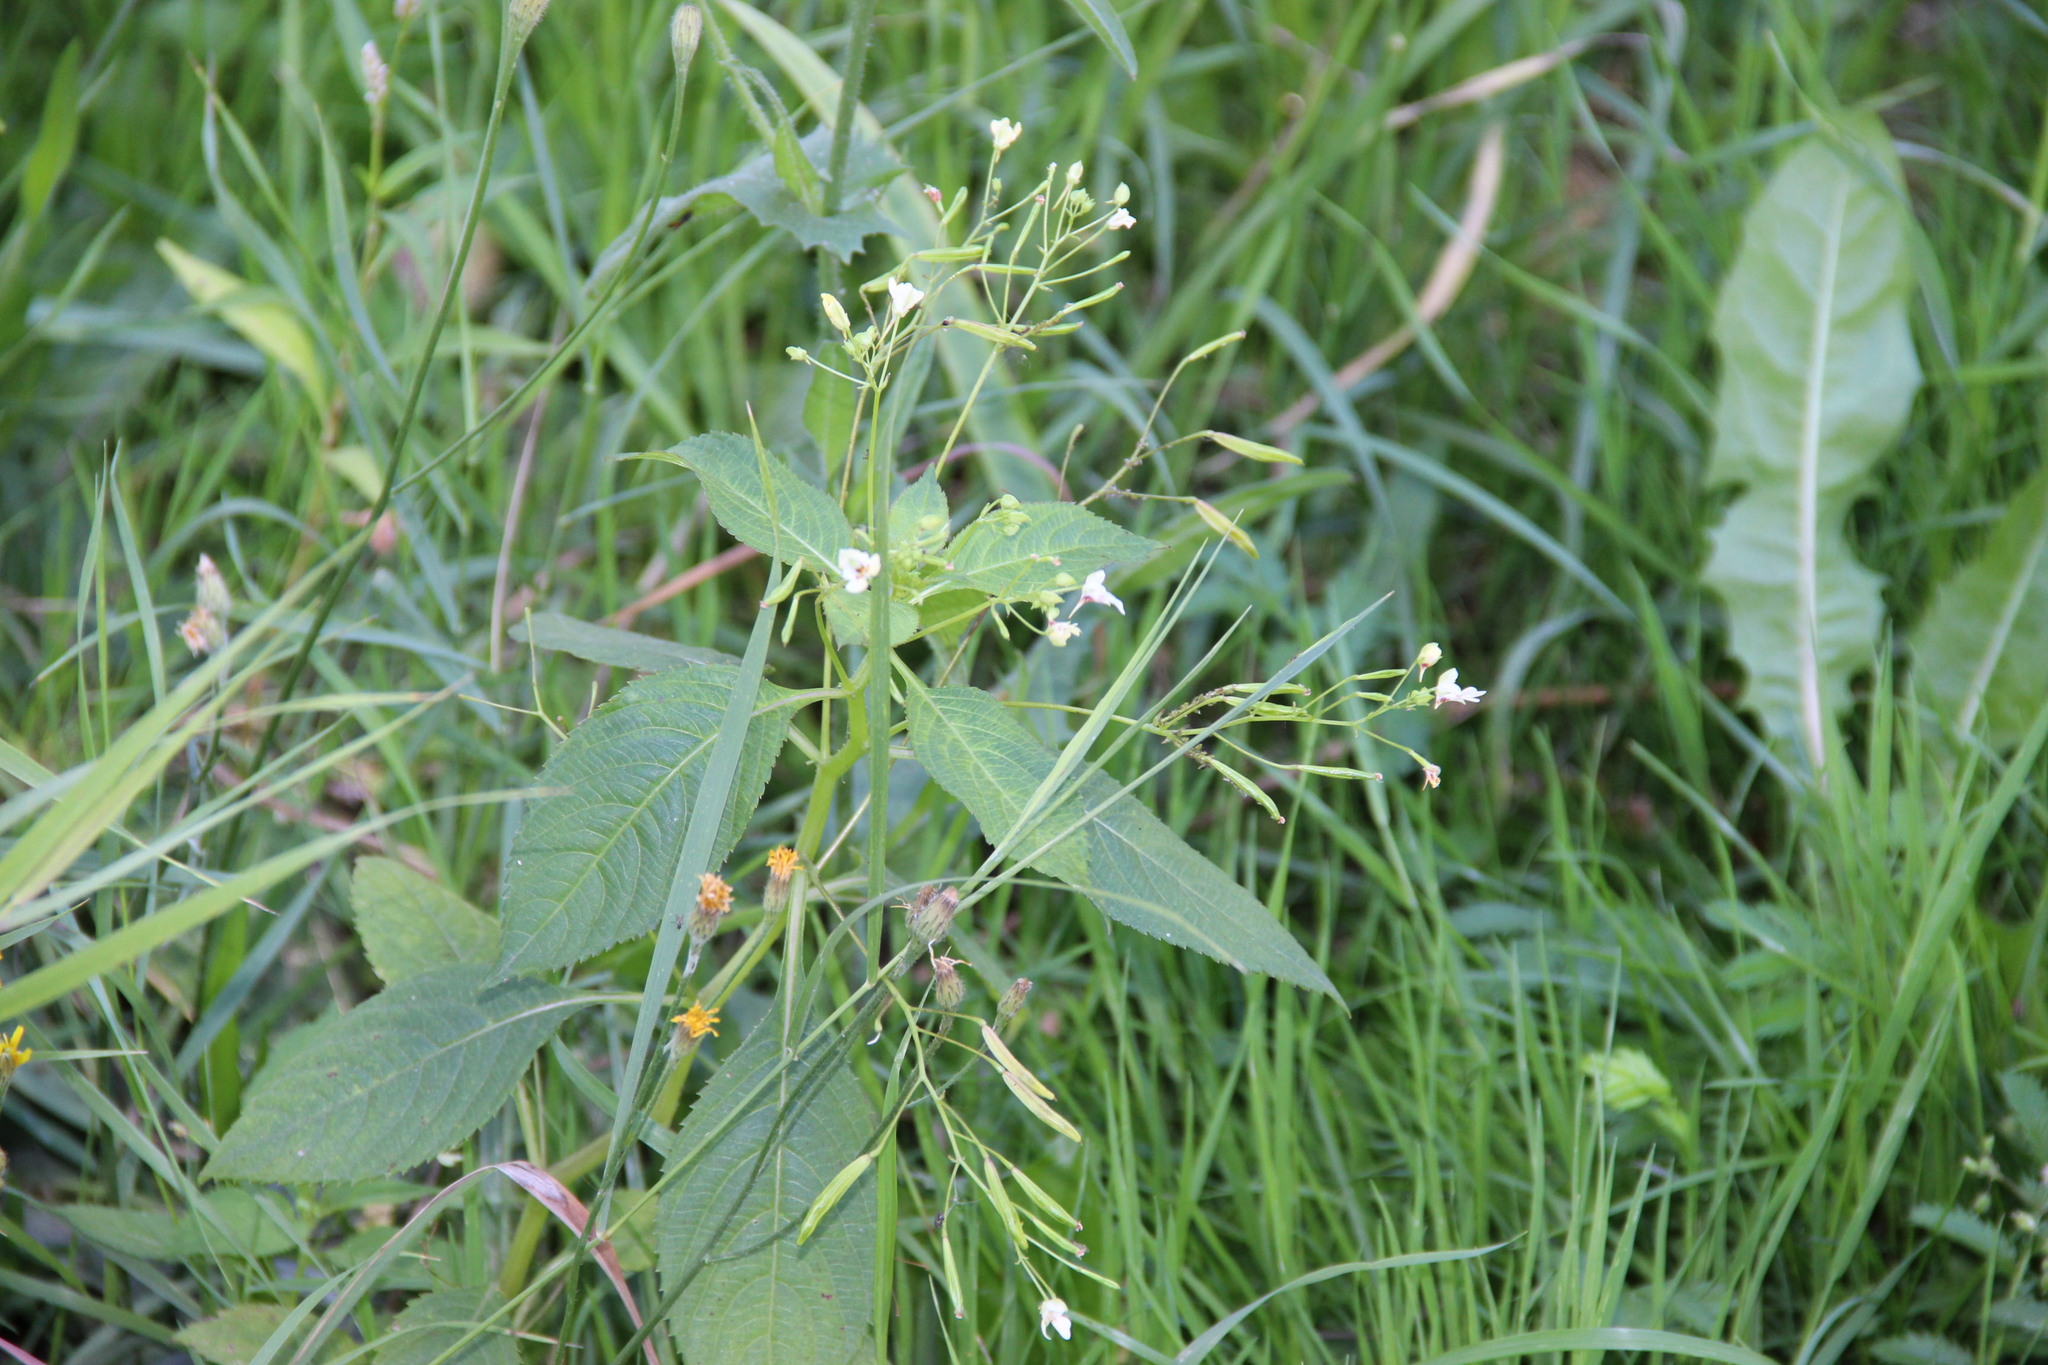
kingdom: Plantae
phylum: Tracheophyta
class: Magnoliopsida
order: Ericales
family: Balsaminaceae
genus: Impatiens
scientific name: Impatiens parviflora
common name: Small balsam
